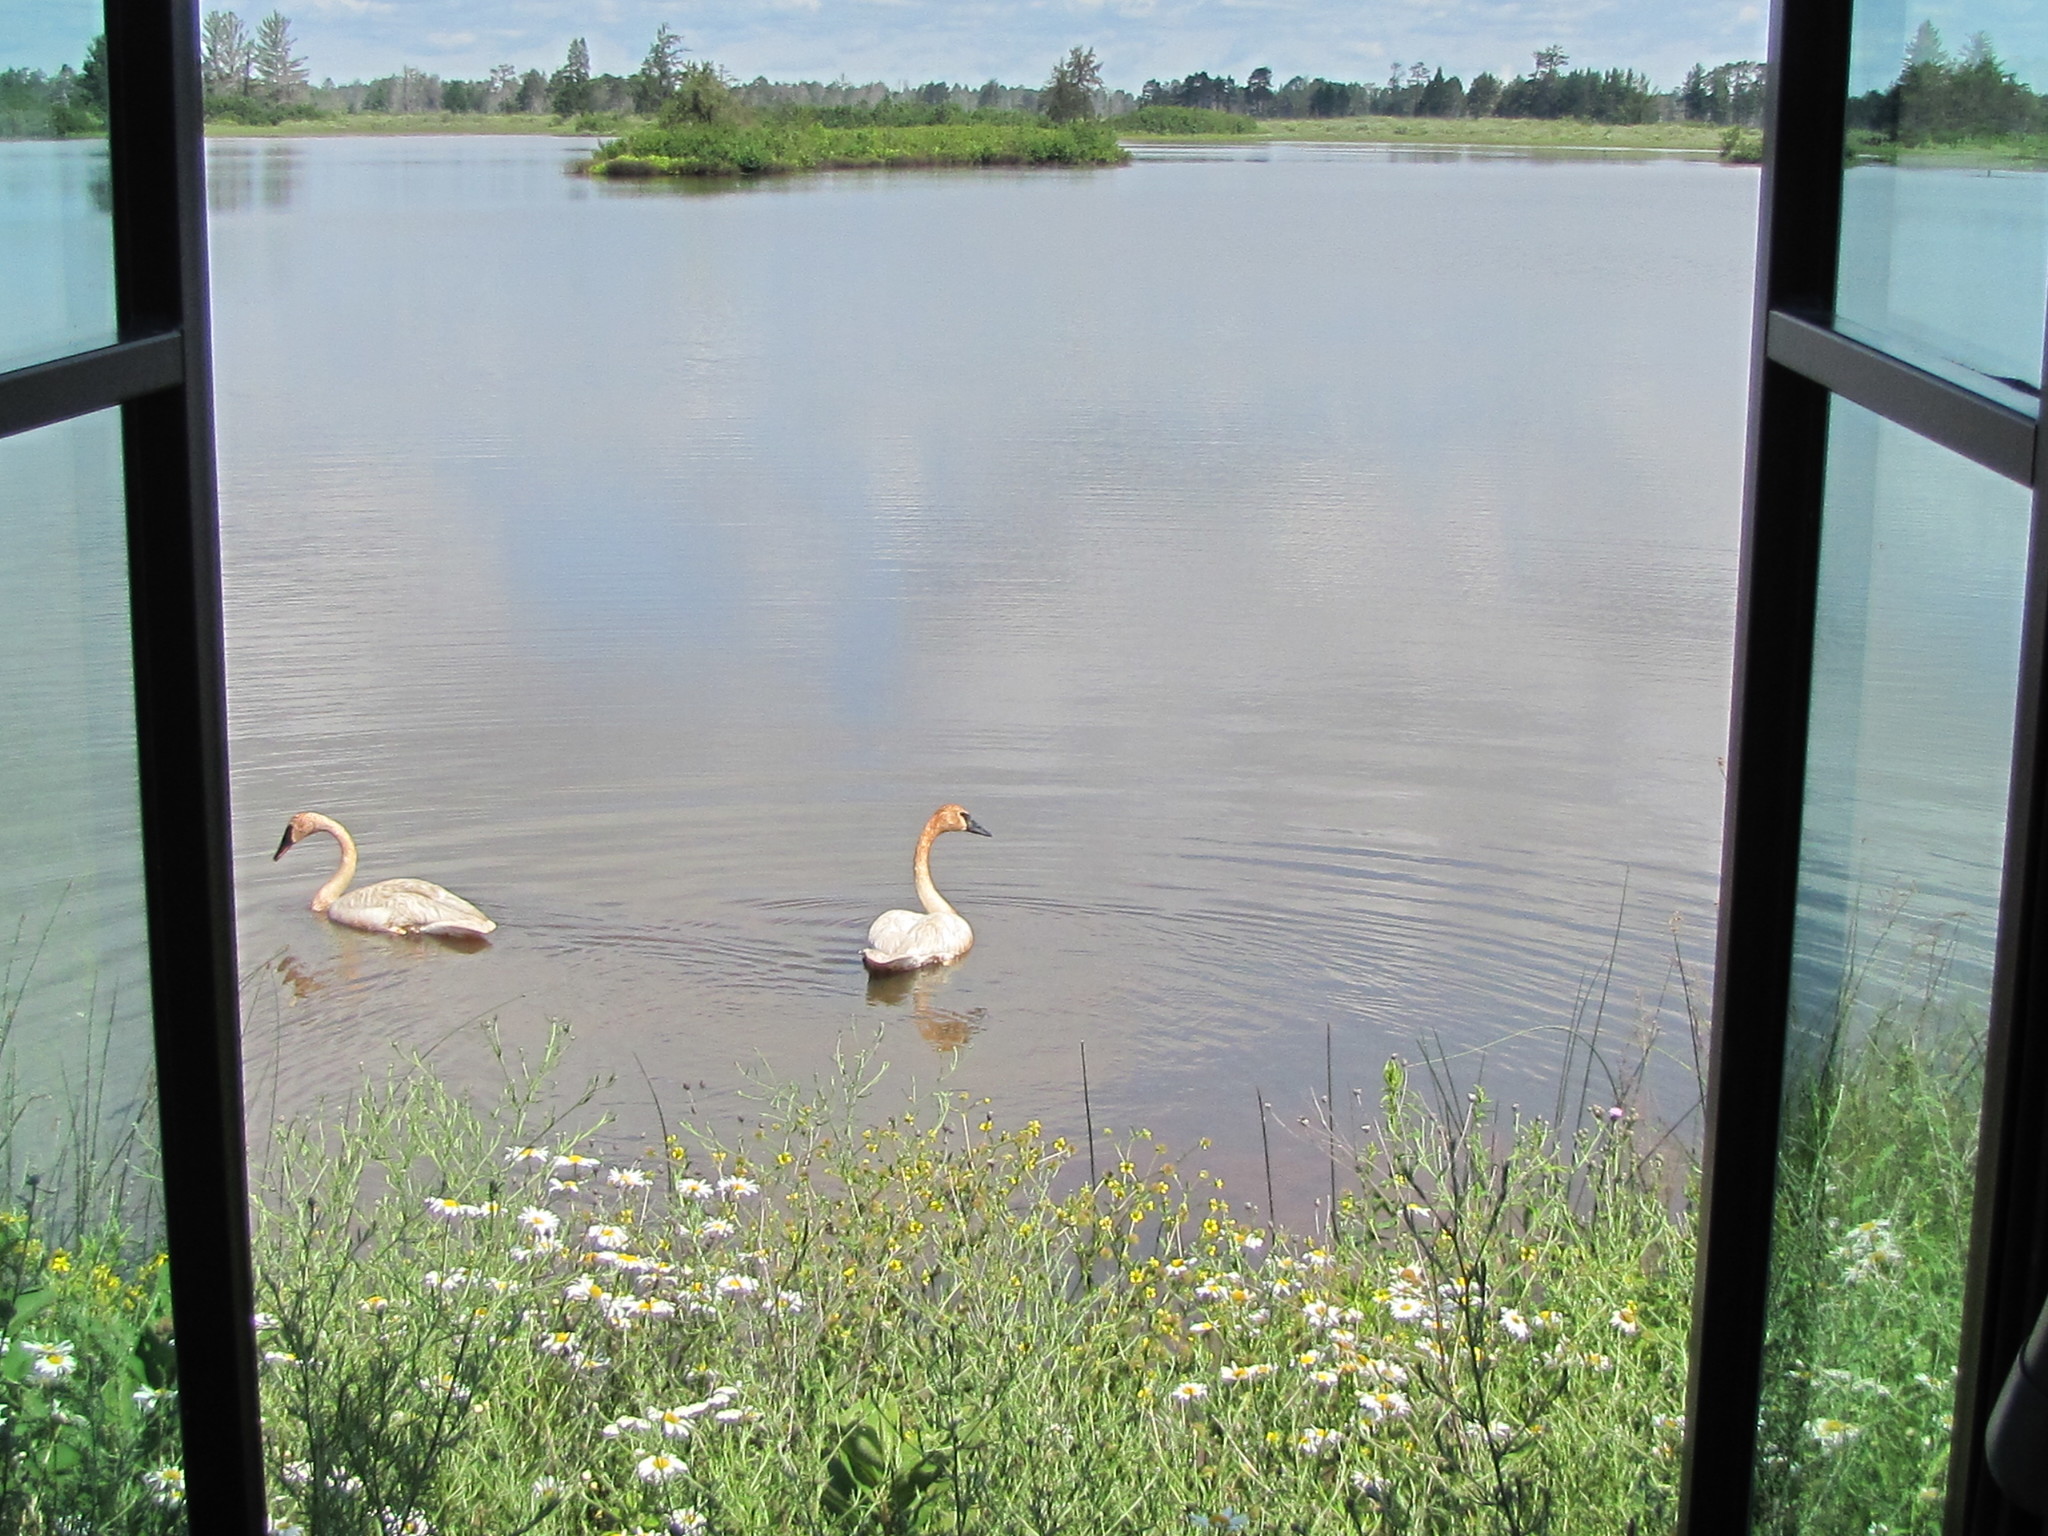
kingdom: Animalia
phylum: Chordata
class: Aves
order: Anseriformes
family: Anatidae
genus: Cygnus
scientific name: Cygnus buccinator
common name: Trumpeter swan
